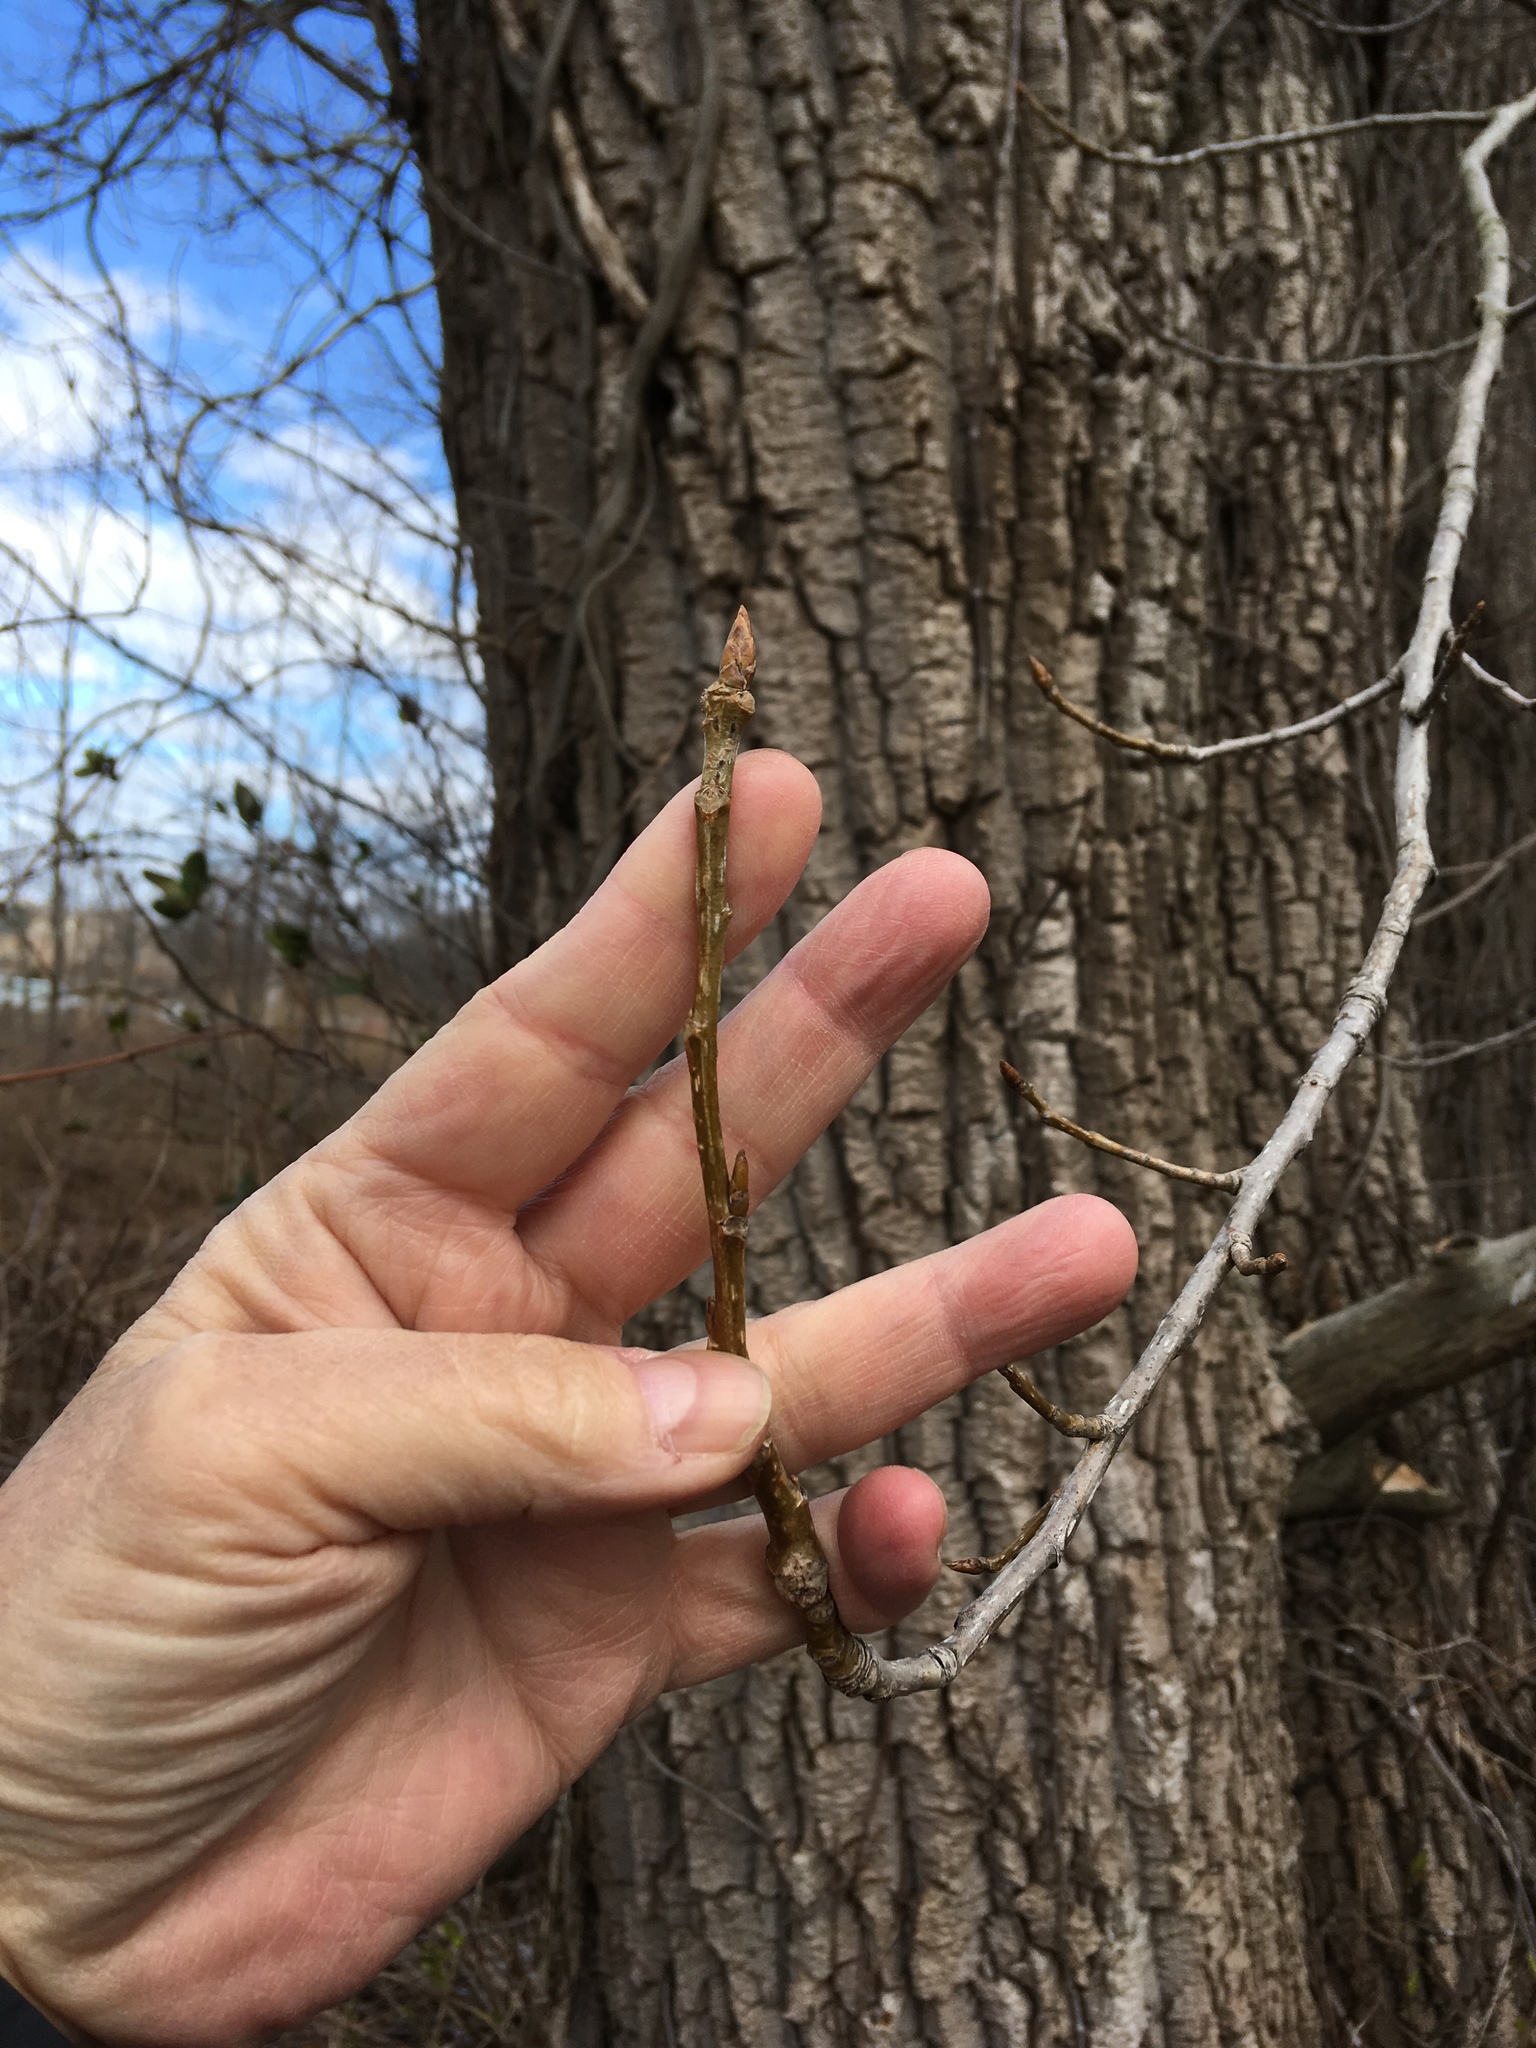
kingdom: Plantae
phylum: Tracheophyta
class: Magnoliopsida
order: Malpighiales
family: Salicaceae
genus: Populus
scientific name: Populus deltoides
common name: Eastern cottonwood
